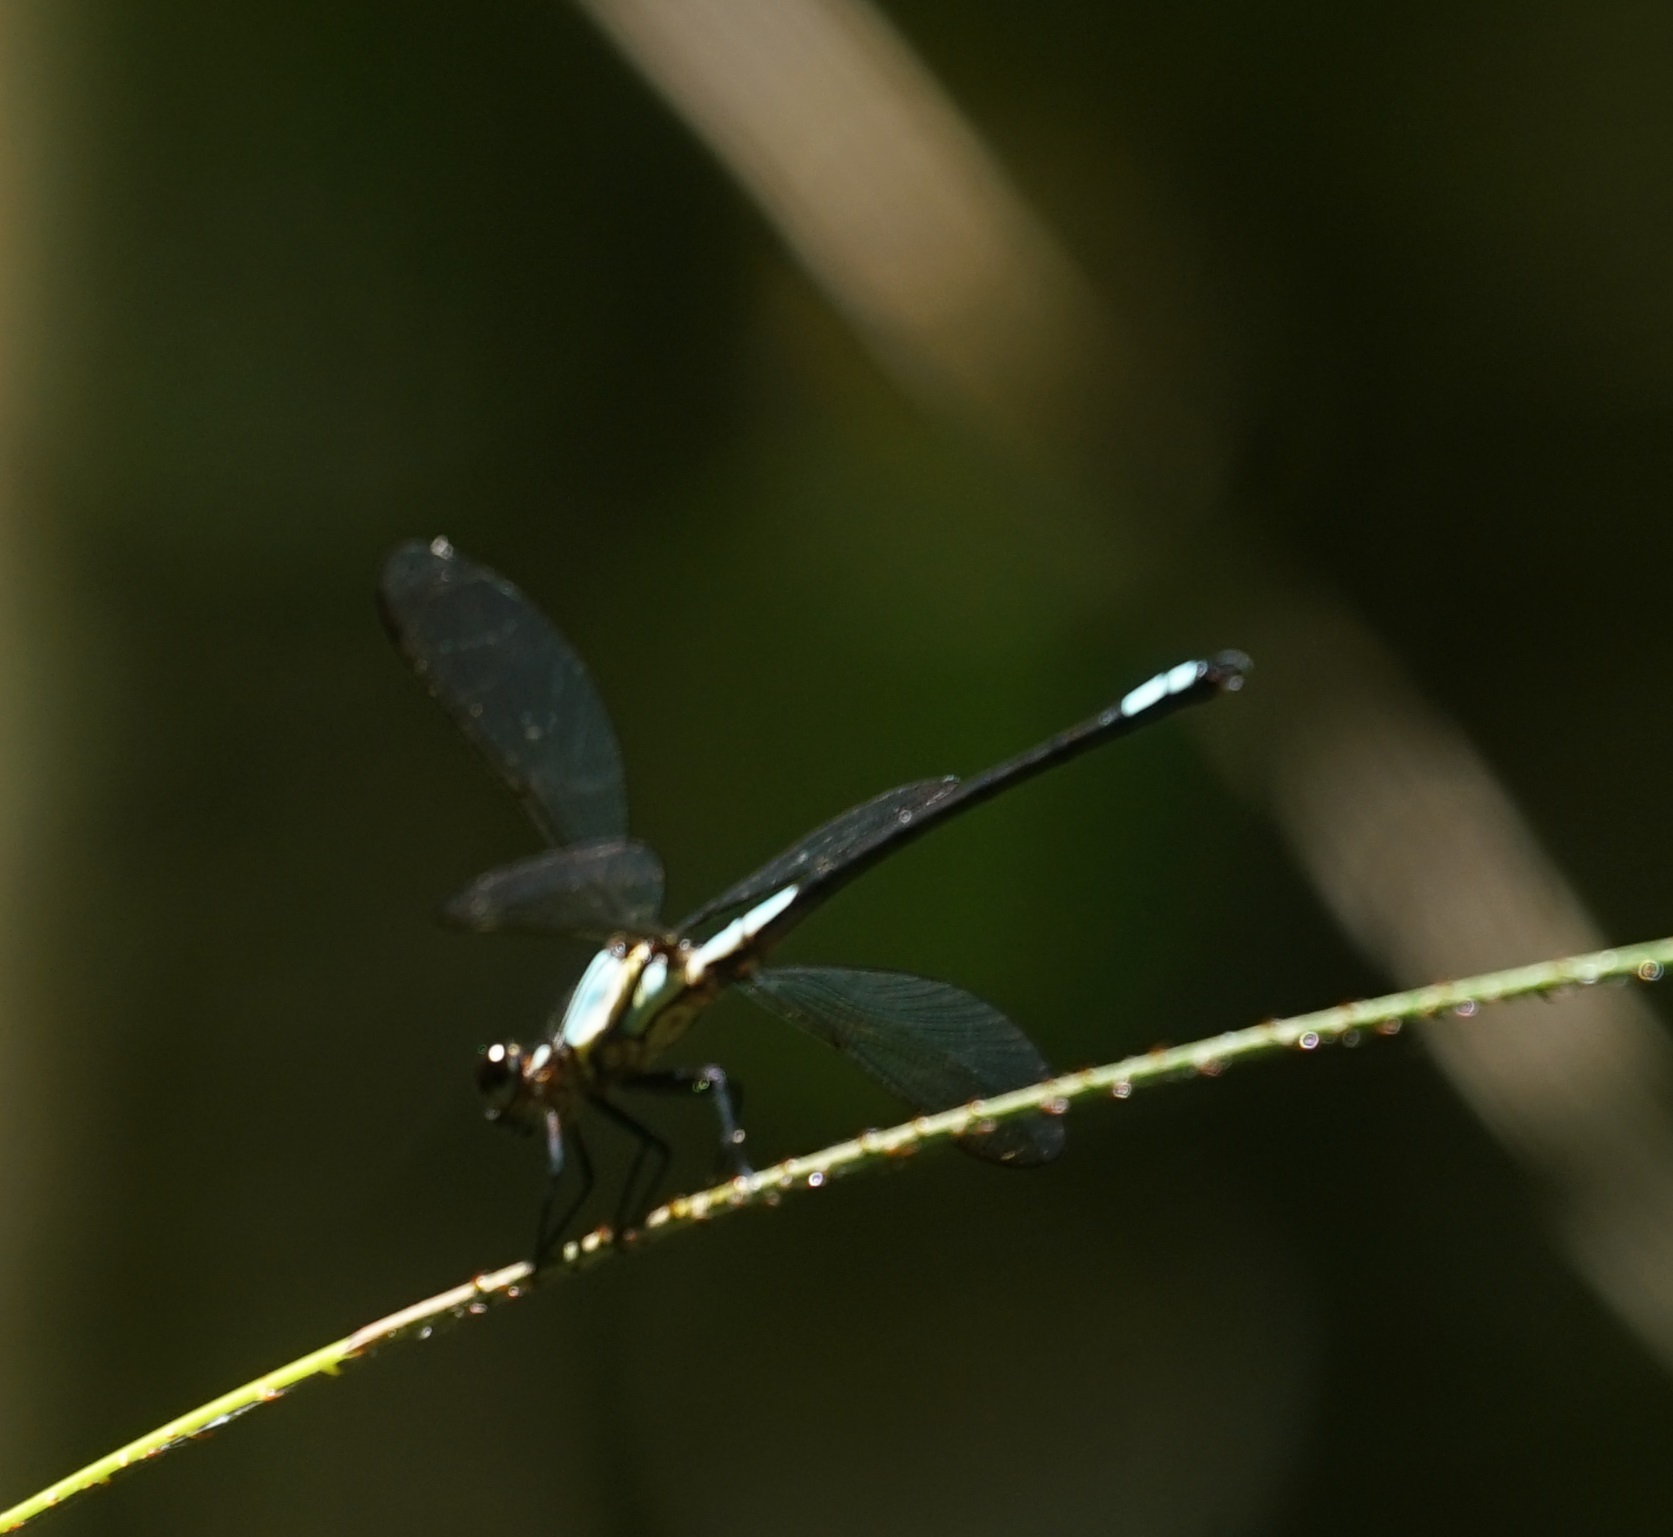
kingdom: Animalia
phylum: Arthropoda
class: Insecta
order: Odonata
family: Lestoideidae
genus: Diphlebia
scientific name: Diphlebia euphoeoides
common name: Tropical rockmaster
